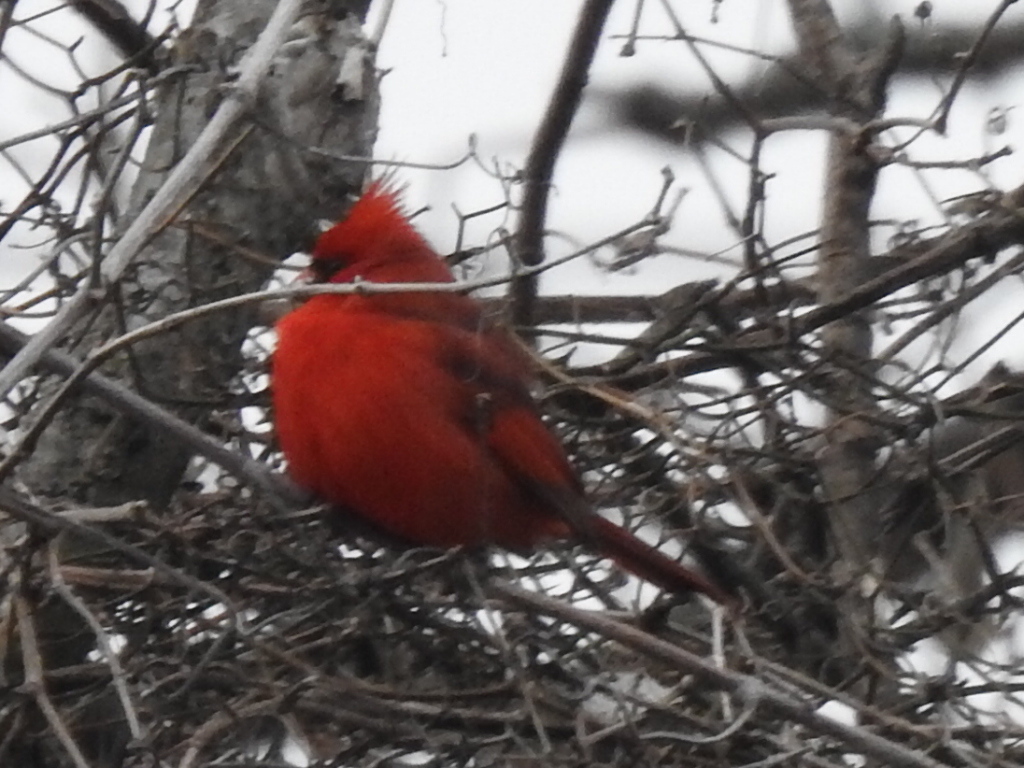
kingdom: Animalia
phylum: Chordata
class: Aves
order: Passeriformes
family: Cardinalidae
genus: Cardinalis
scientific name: Cardinalis cardinalis
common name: Northern cardinal
